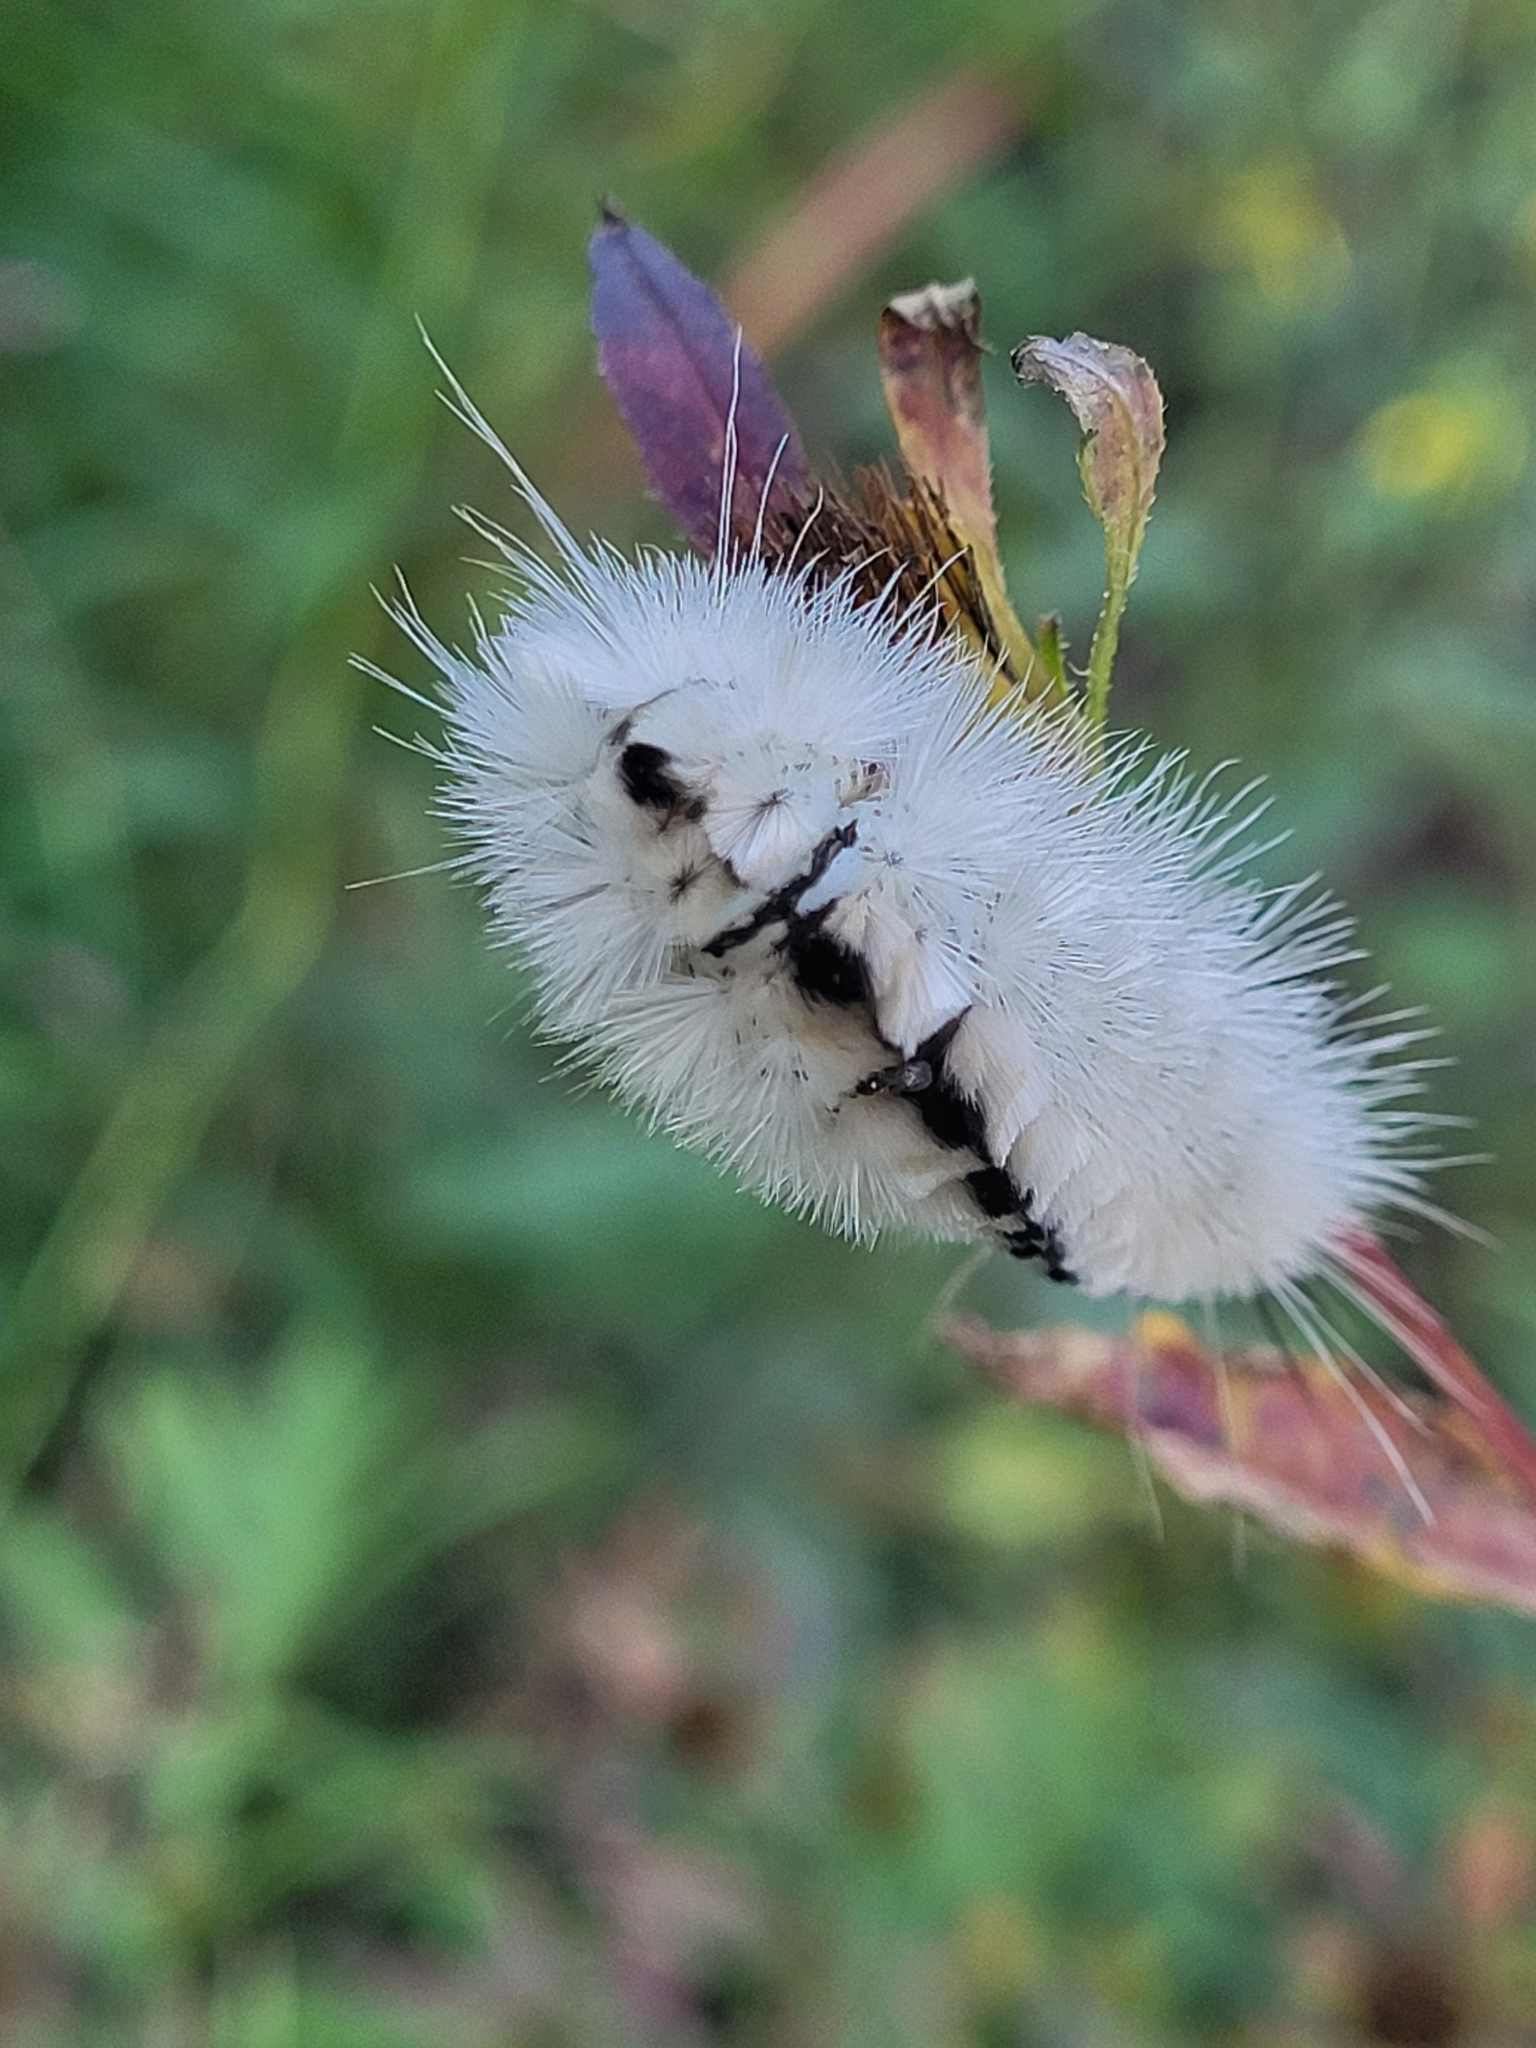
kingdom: Animalia
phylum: Arthropoda
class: Insecta
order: Lepidoptera
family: Erebidae
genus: Lophocampa
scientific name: Lophocampa caryae
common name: Hickory tussock moth
